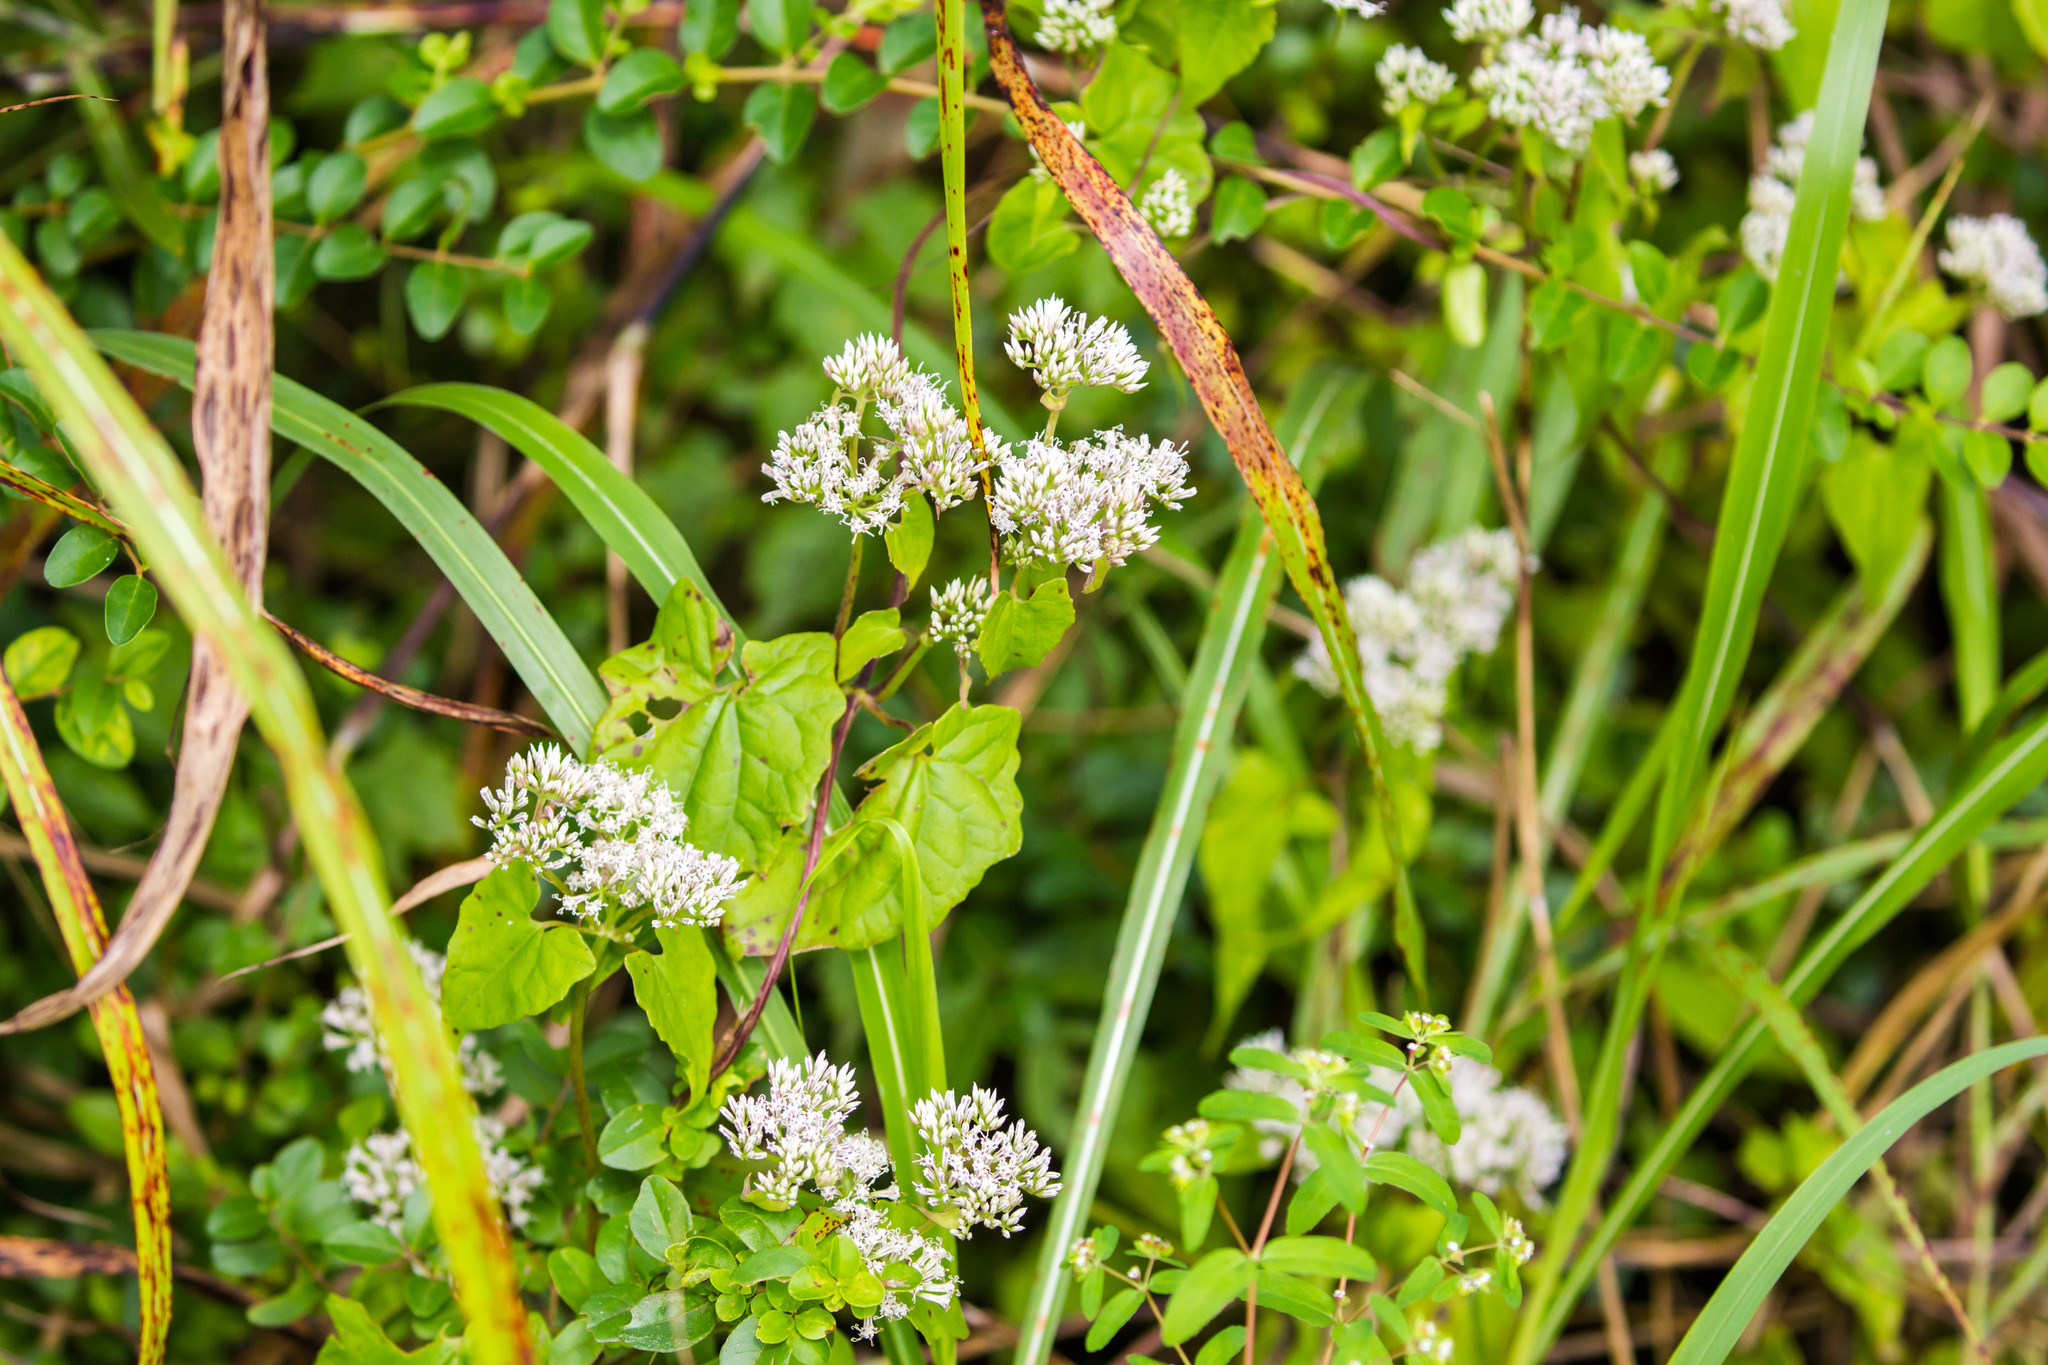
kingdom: Plantae
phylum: Tracheophyta
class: Magnoliopsida
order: Asterales
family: Asteraceae
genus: Mikania
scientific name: Mikania scandens
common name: Climbing hempvine
